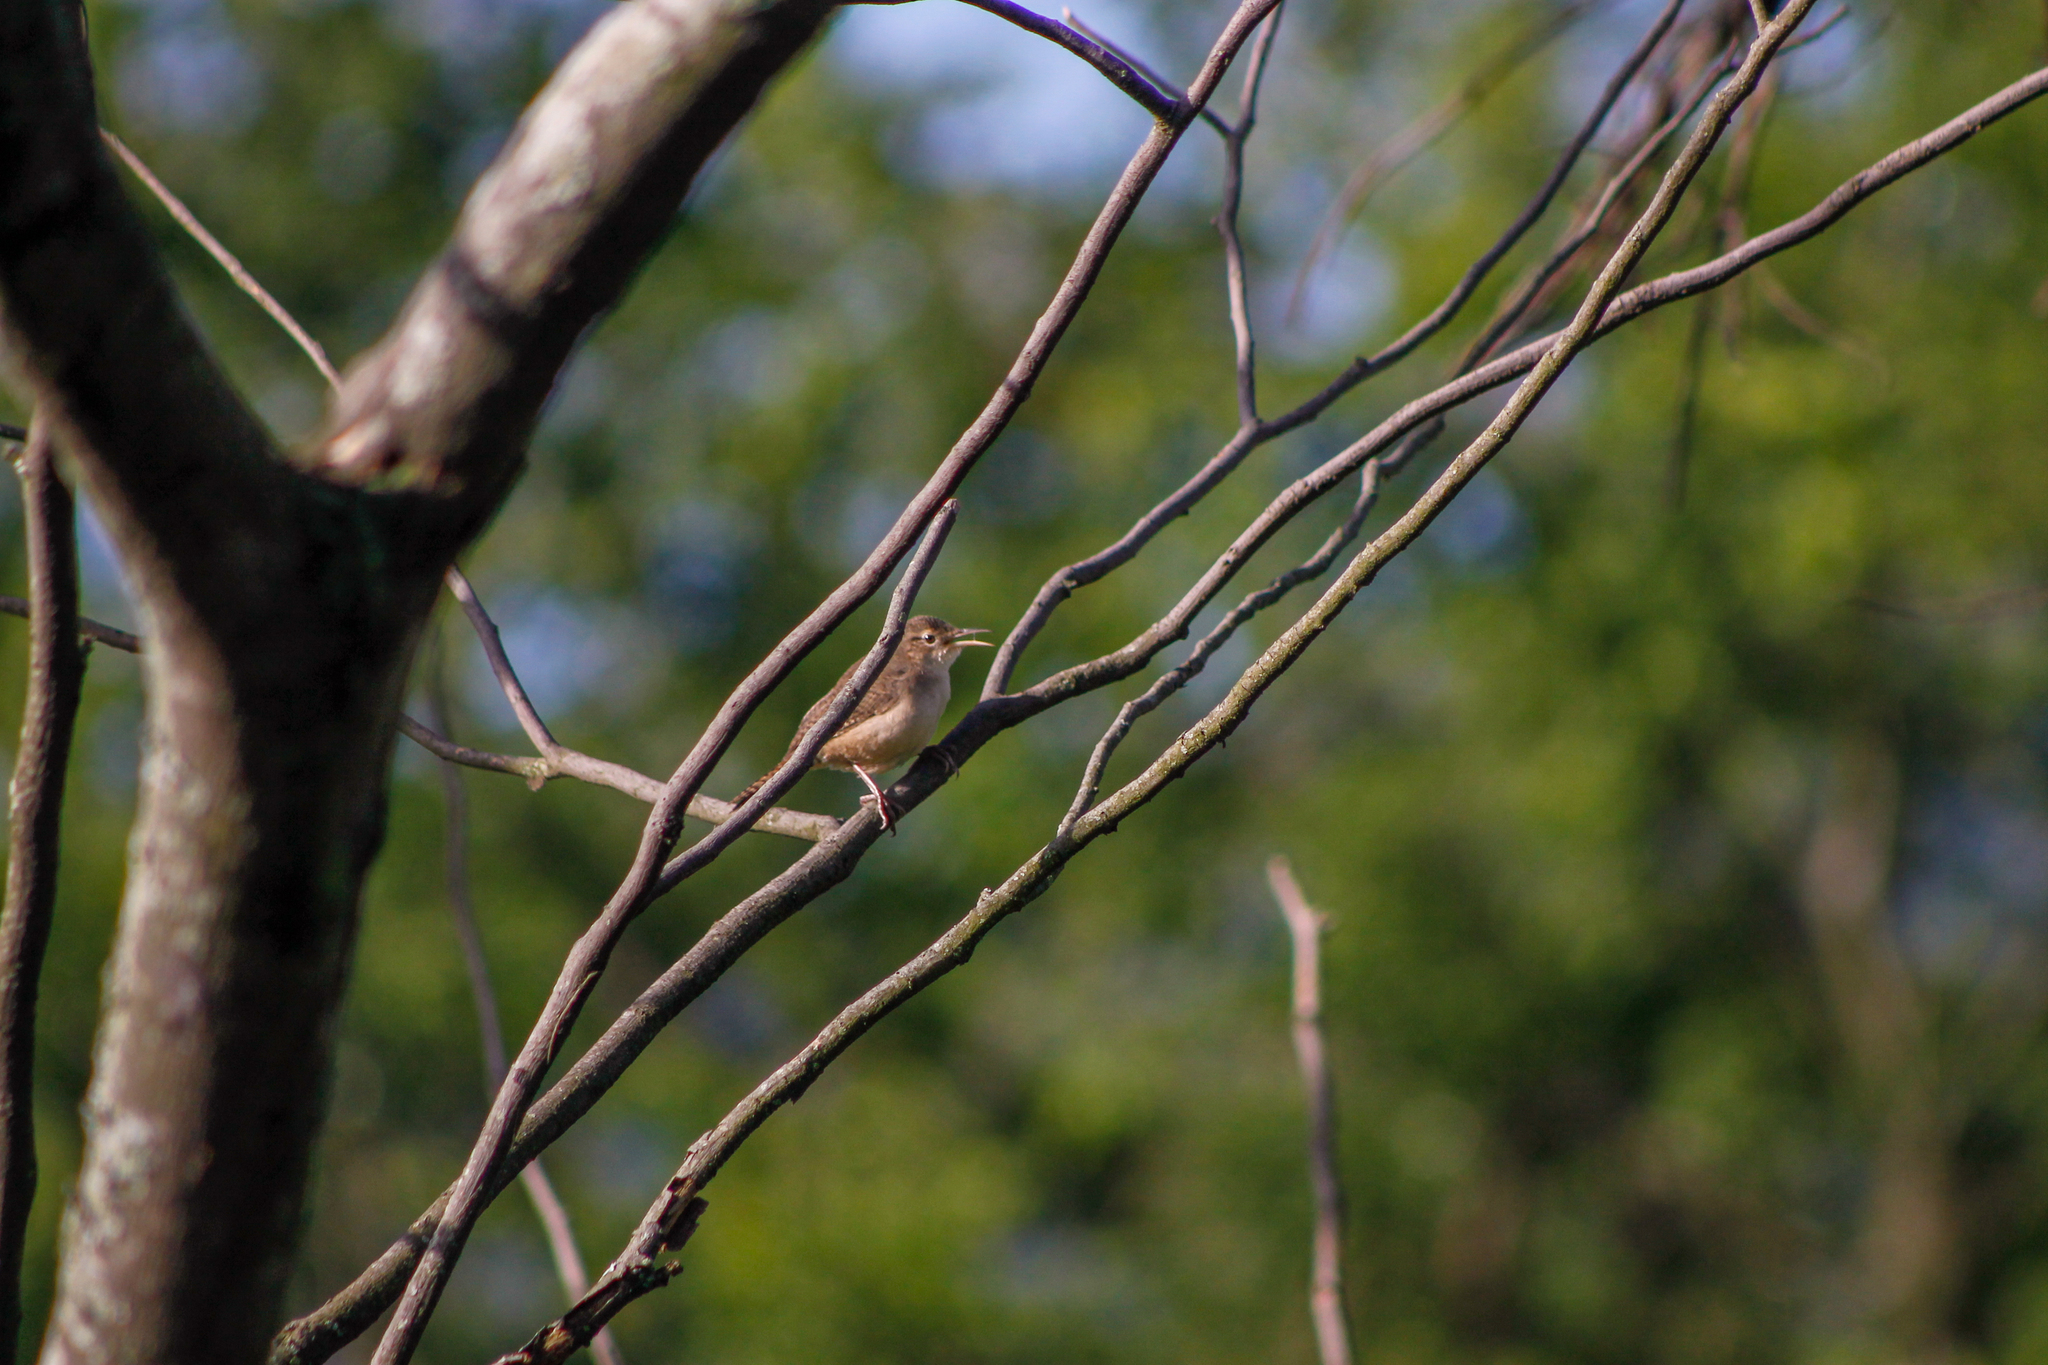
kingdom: Animalia
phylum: Chordata
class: Aves
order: Passeriformes
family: Troglodytidae
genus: Troglodytes
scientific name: Troglodytes aedon
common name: House wren
